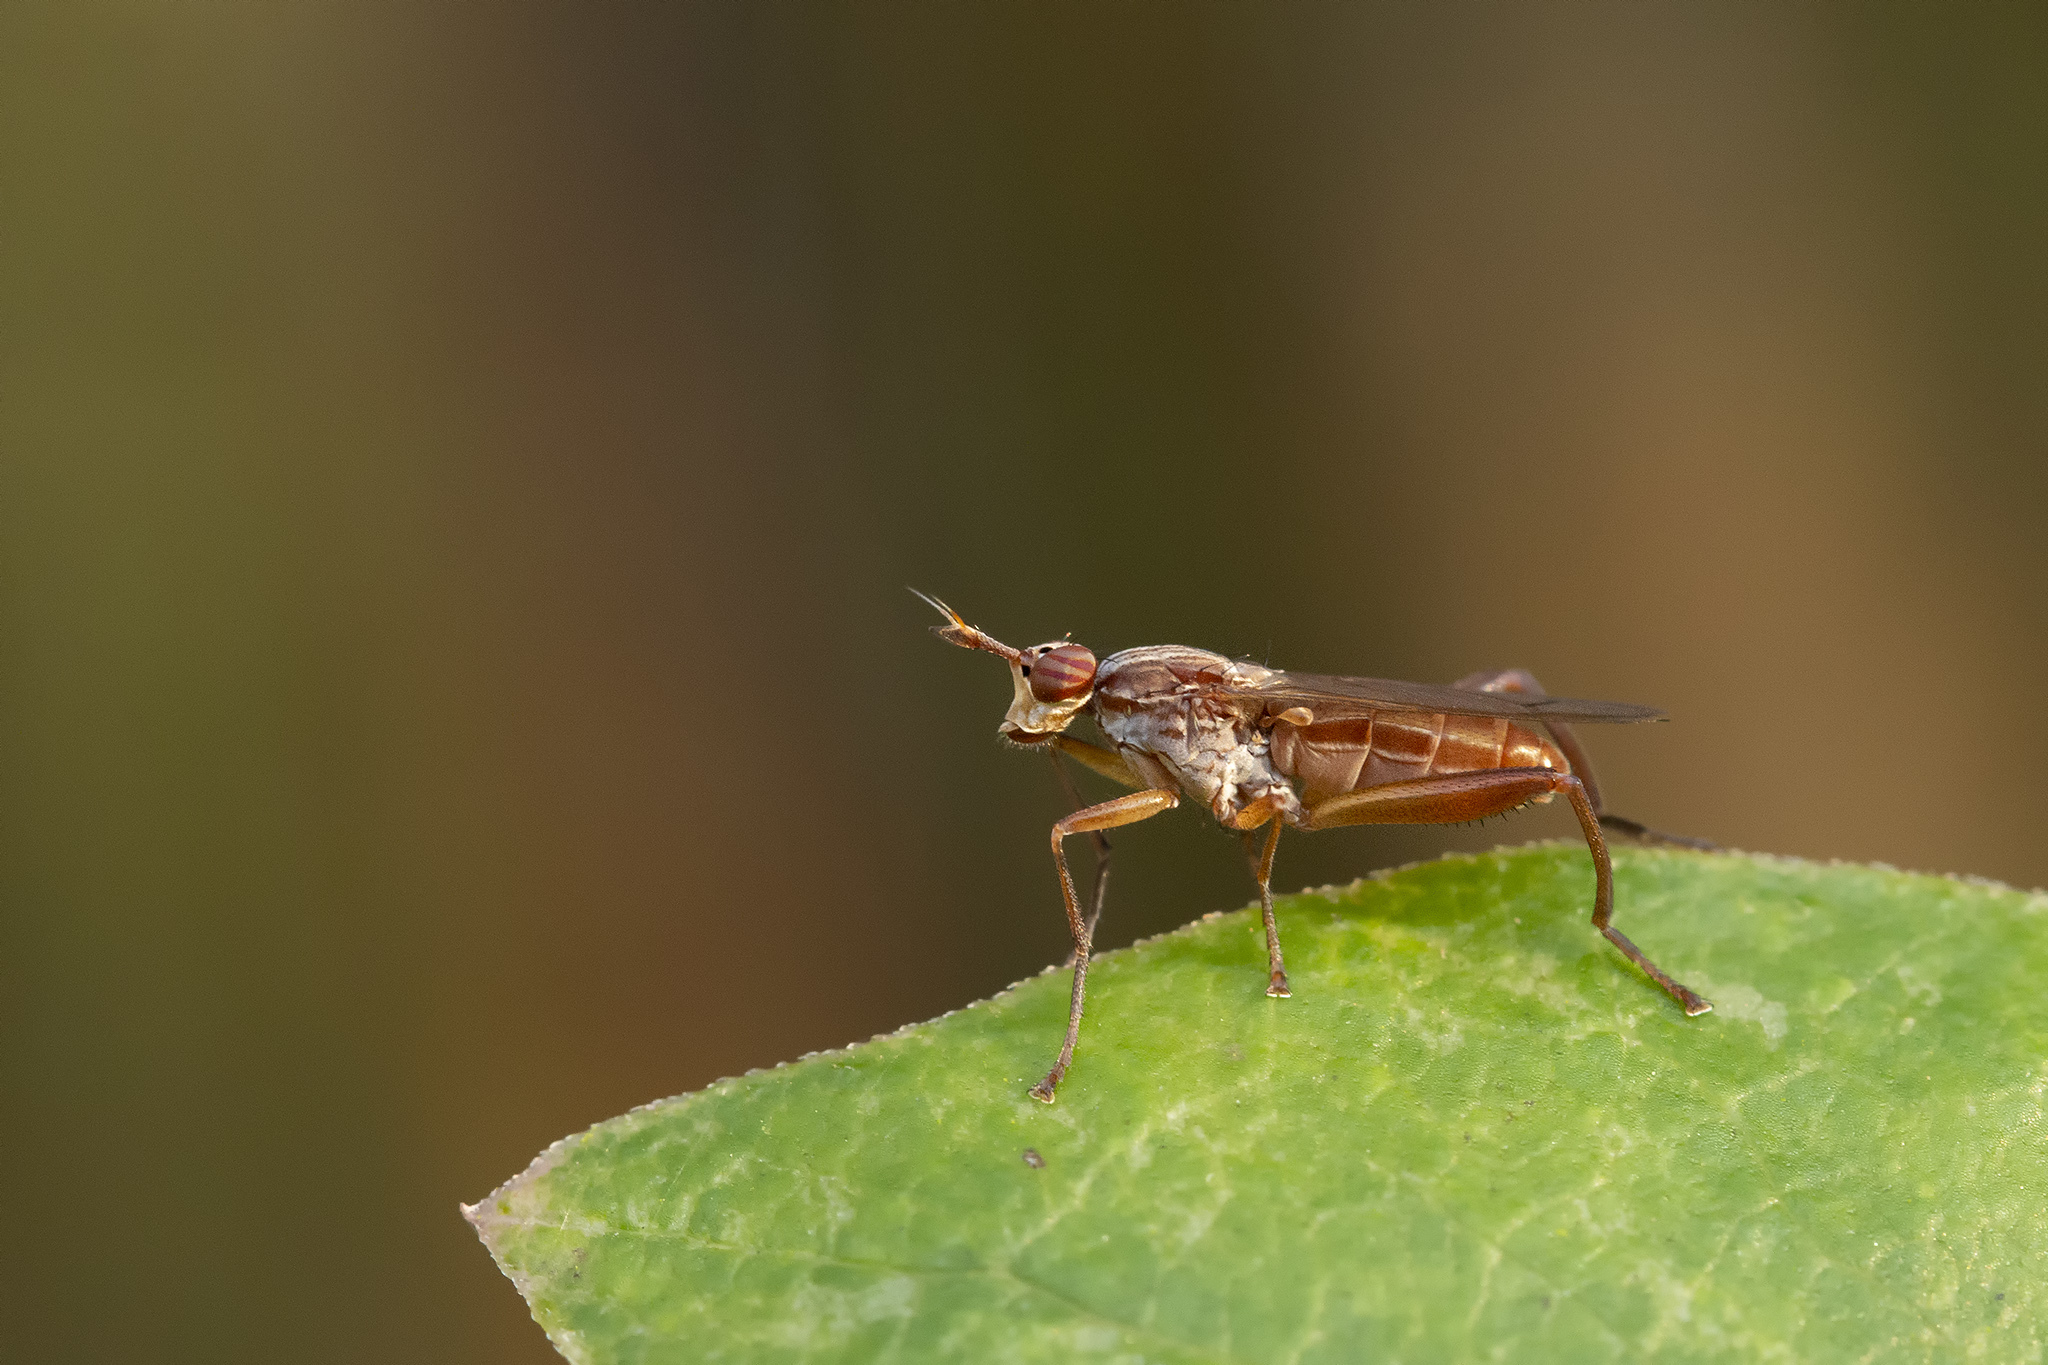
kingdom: Animalia
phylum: Arthropoda
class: Insecta
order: Diptera
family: Sciomyzidae
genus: Sepedon
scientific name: Sepedon spinipes
